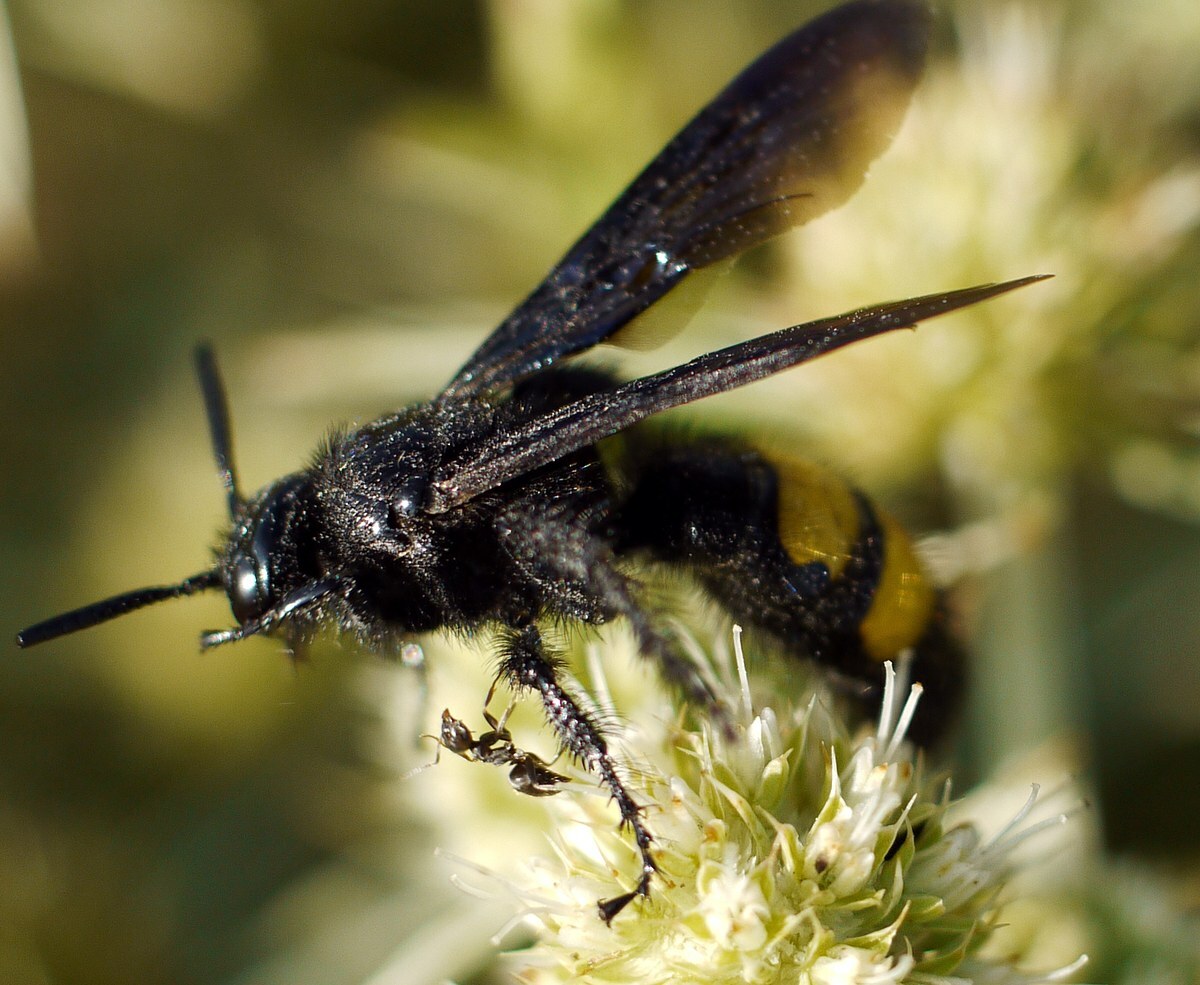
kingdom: Animalia
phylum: Arthropoda
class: Insecta
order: Hymenoptera
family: Scoliidae
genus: Scolia
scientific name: Scolia hirta
